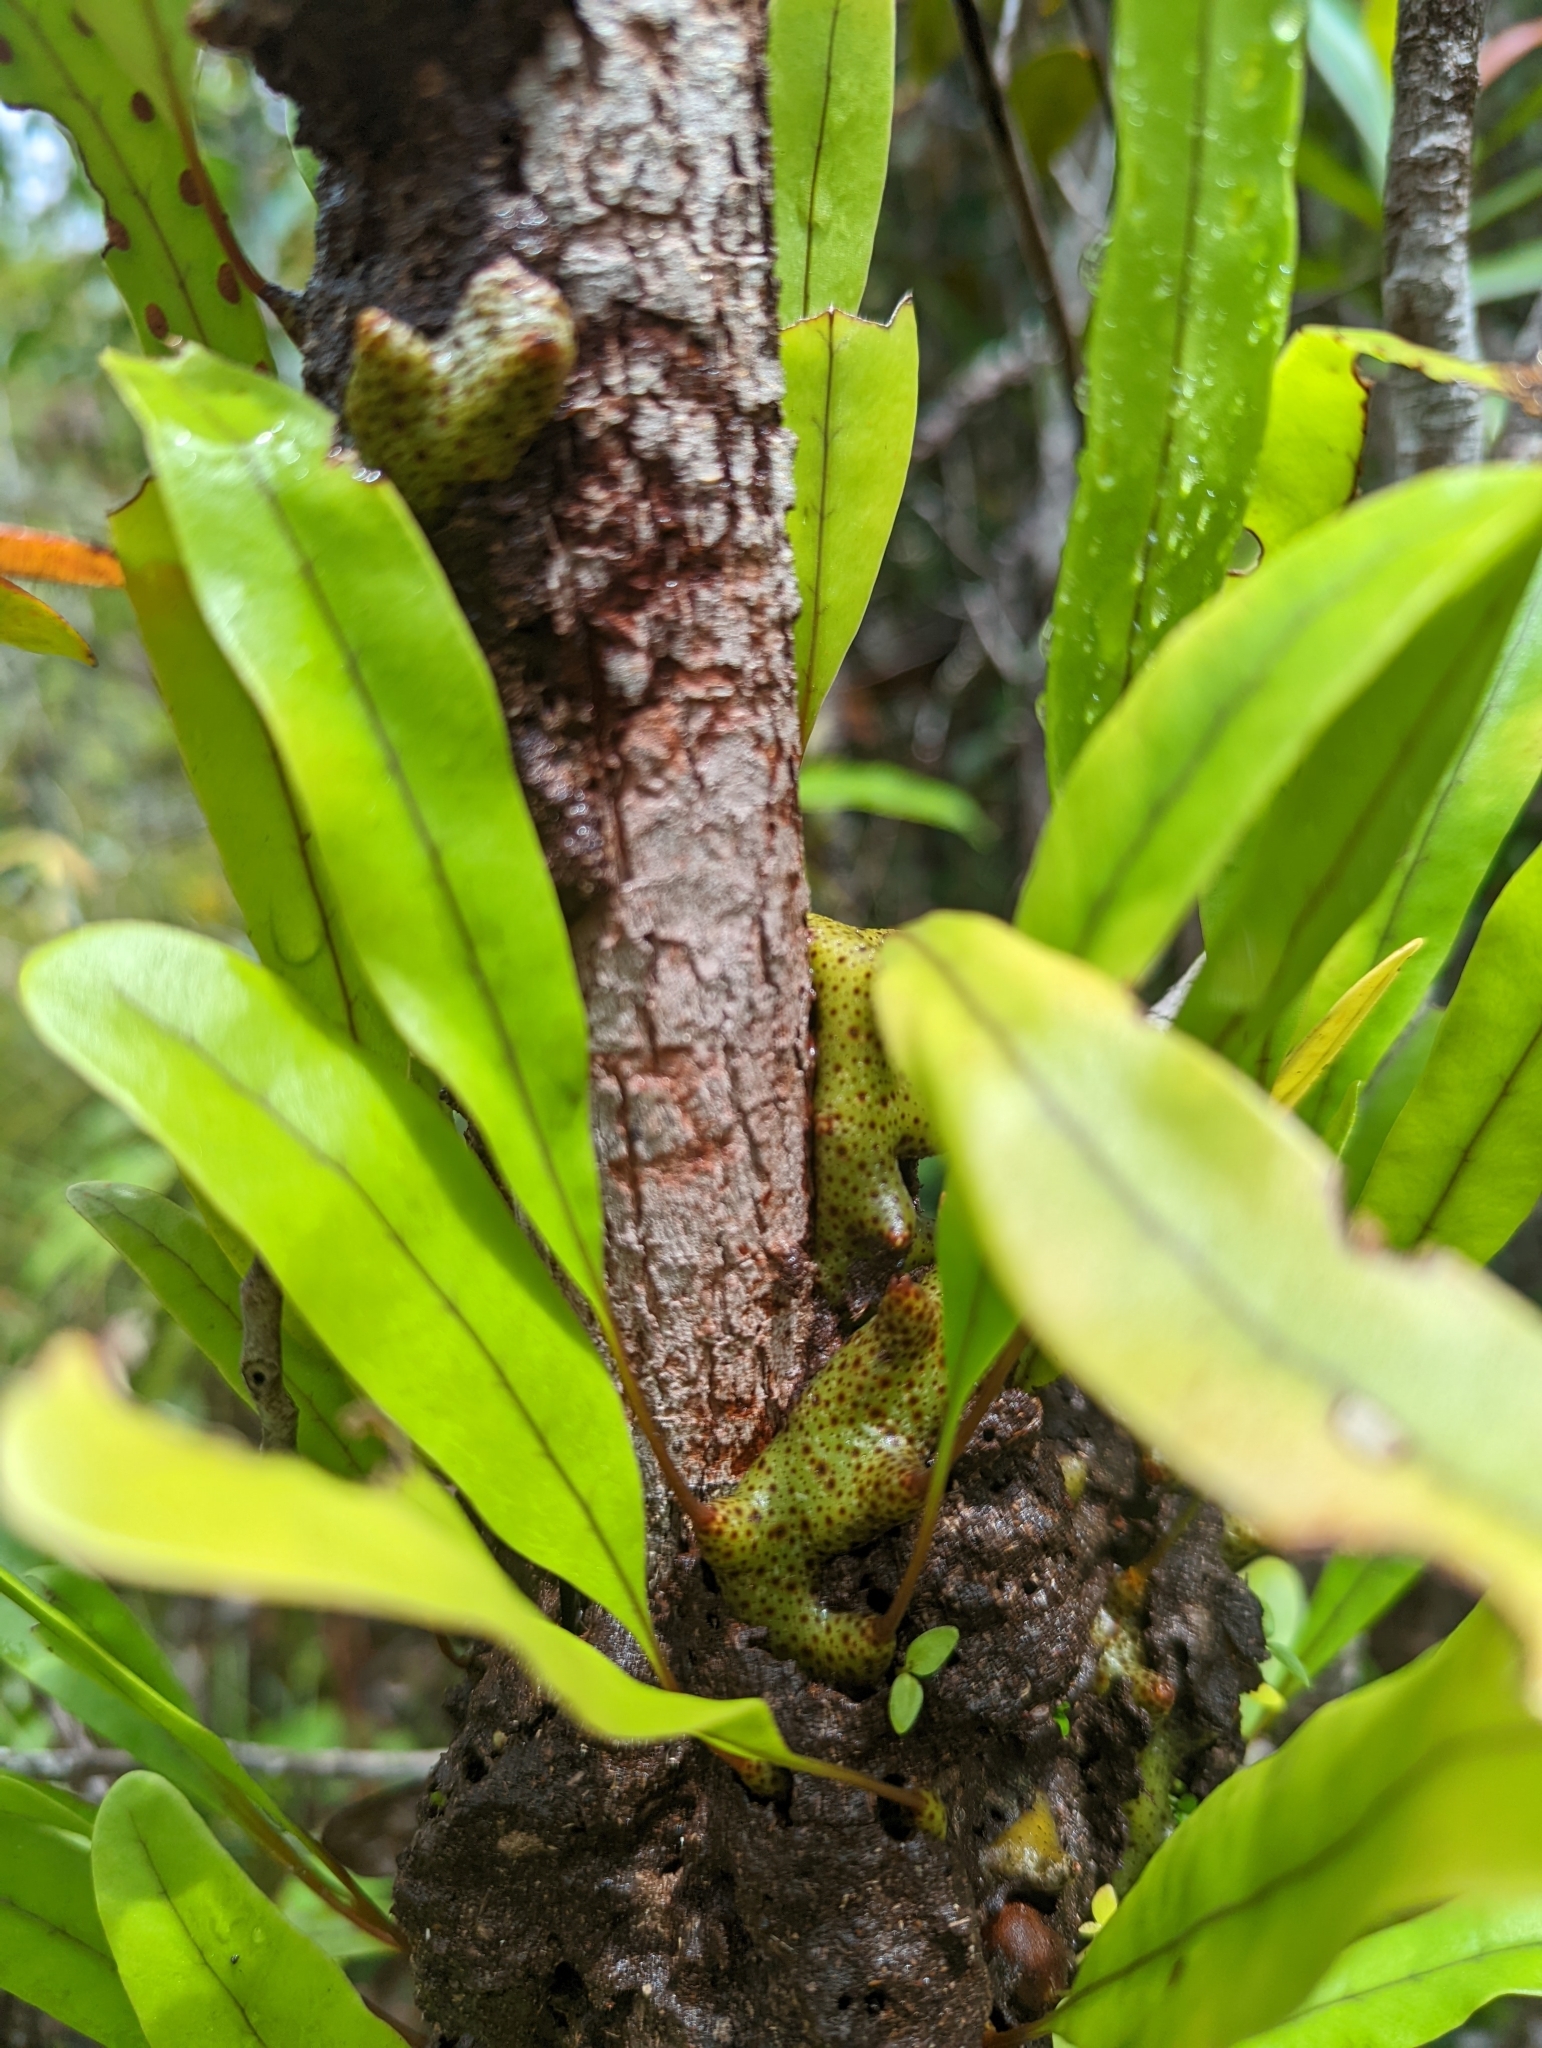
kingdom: Plantae
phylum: Tracheophyta
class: Polypodiopsida
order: Polypodiales
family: Polypodiaceae
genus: Lecanopteris
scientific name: Lecanopteris sinuosa
